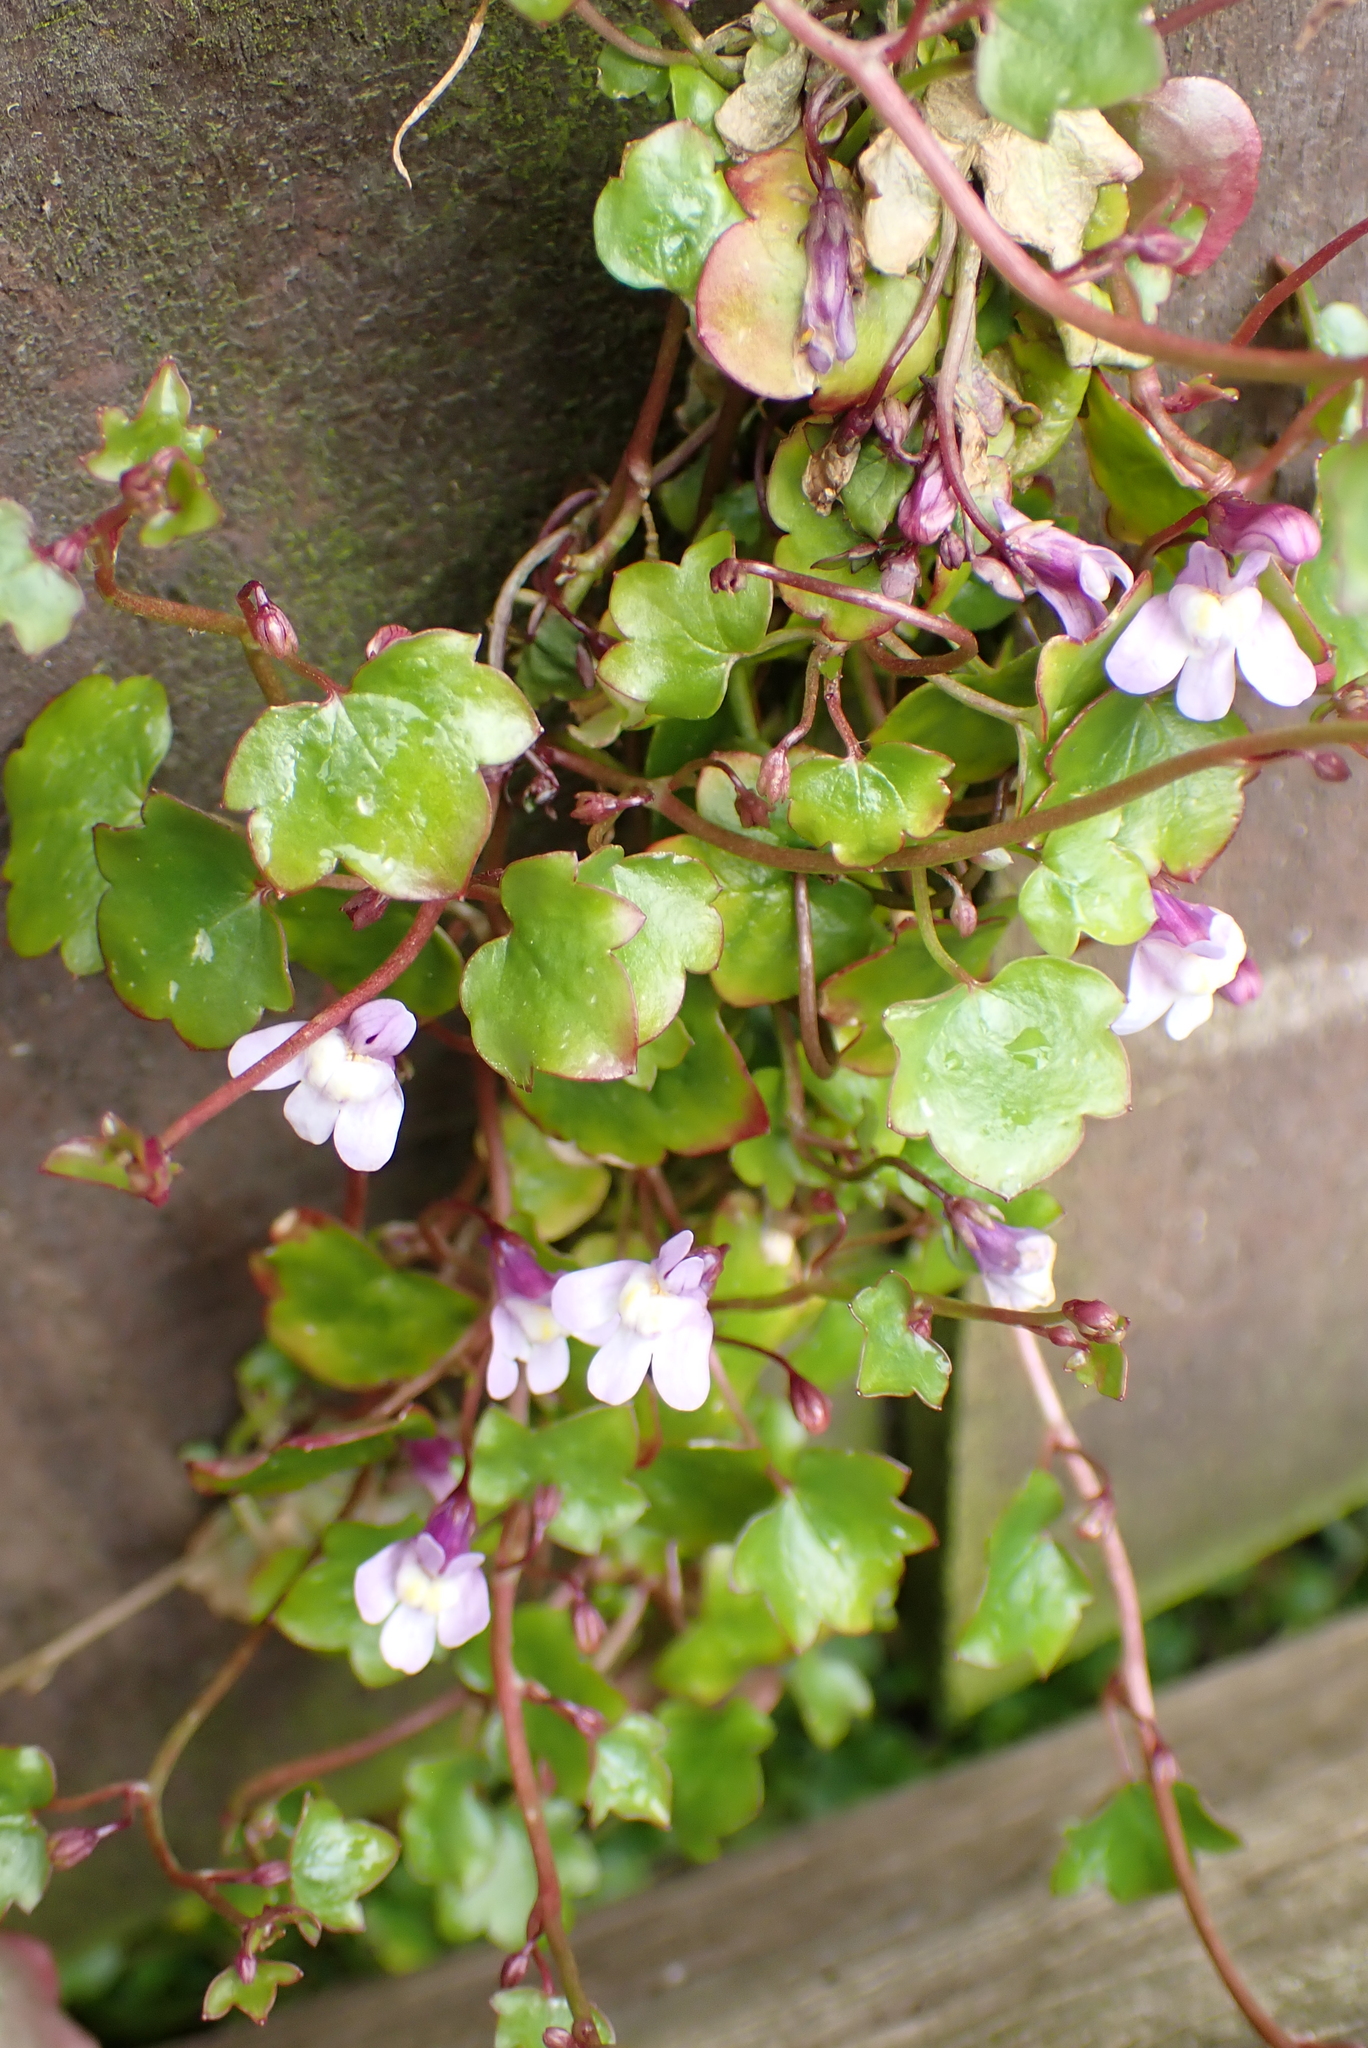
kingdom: Plantae
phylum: Tracheophyta
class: Magnoliopsida
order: Lamiales
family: Plantaginaceae
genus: Cymbalaria
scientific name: Cymbalaria muralis
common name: Ivy-leaved toadflax
